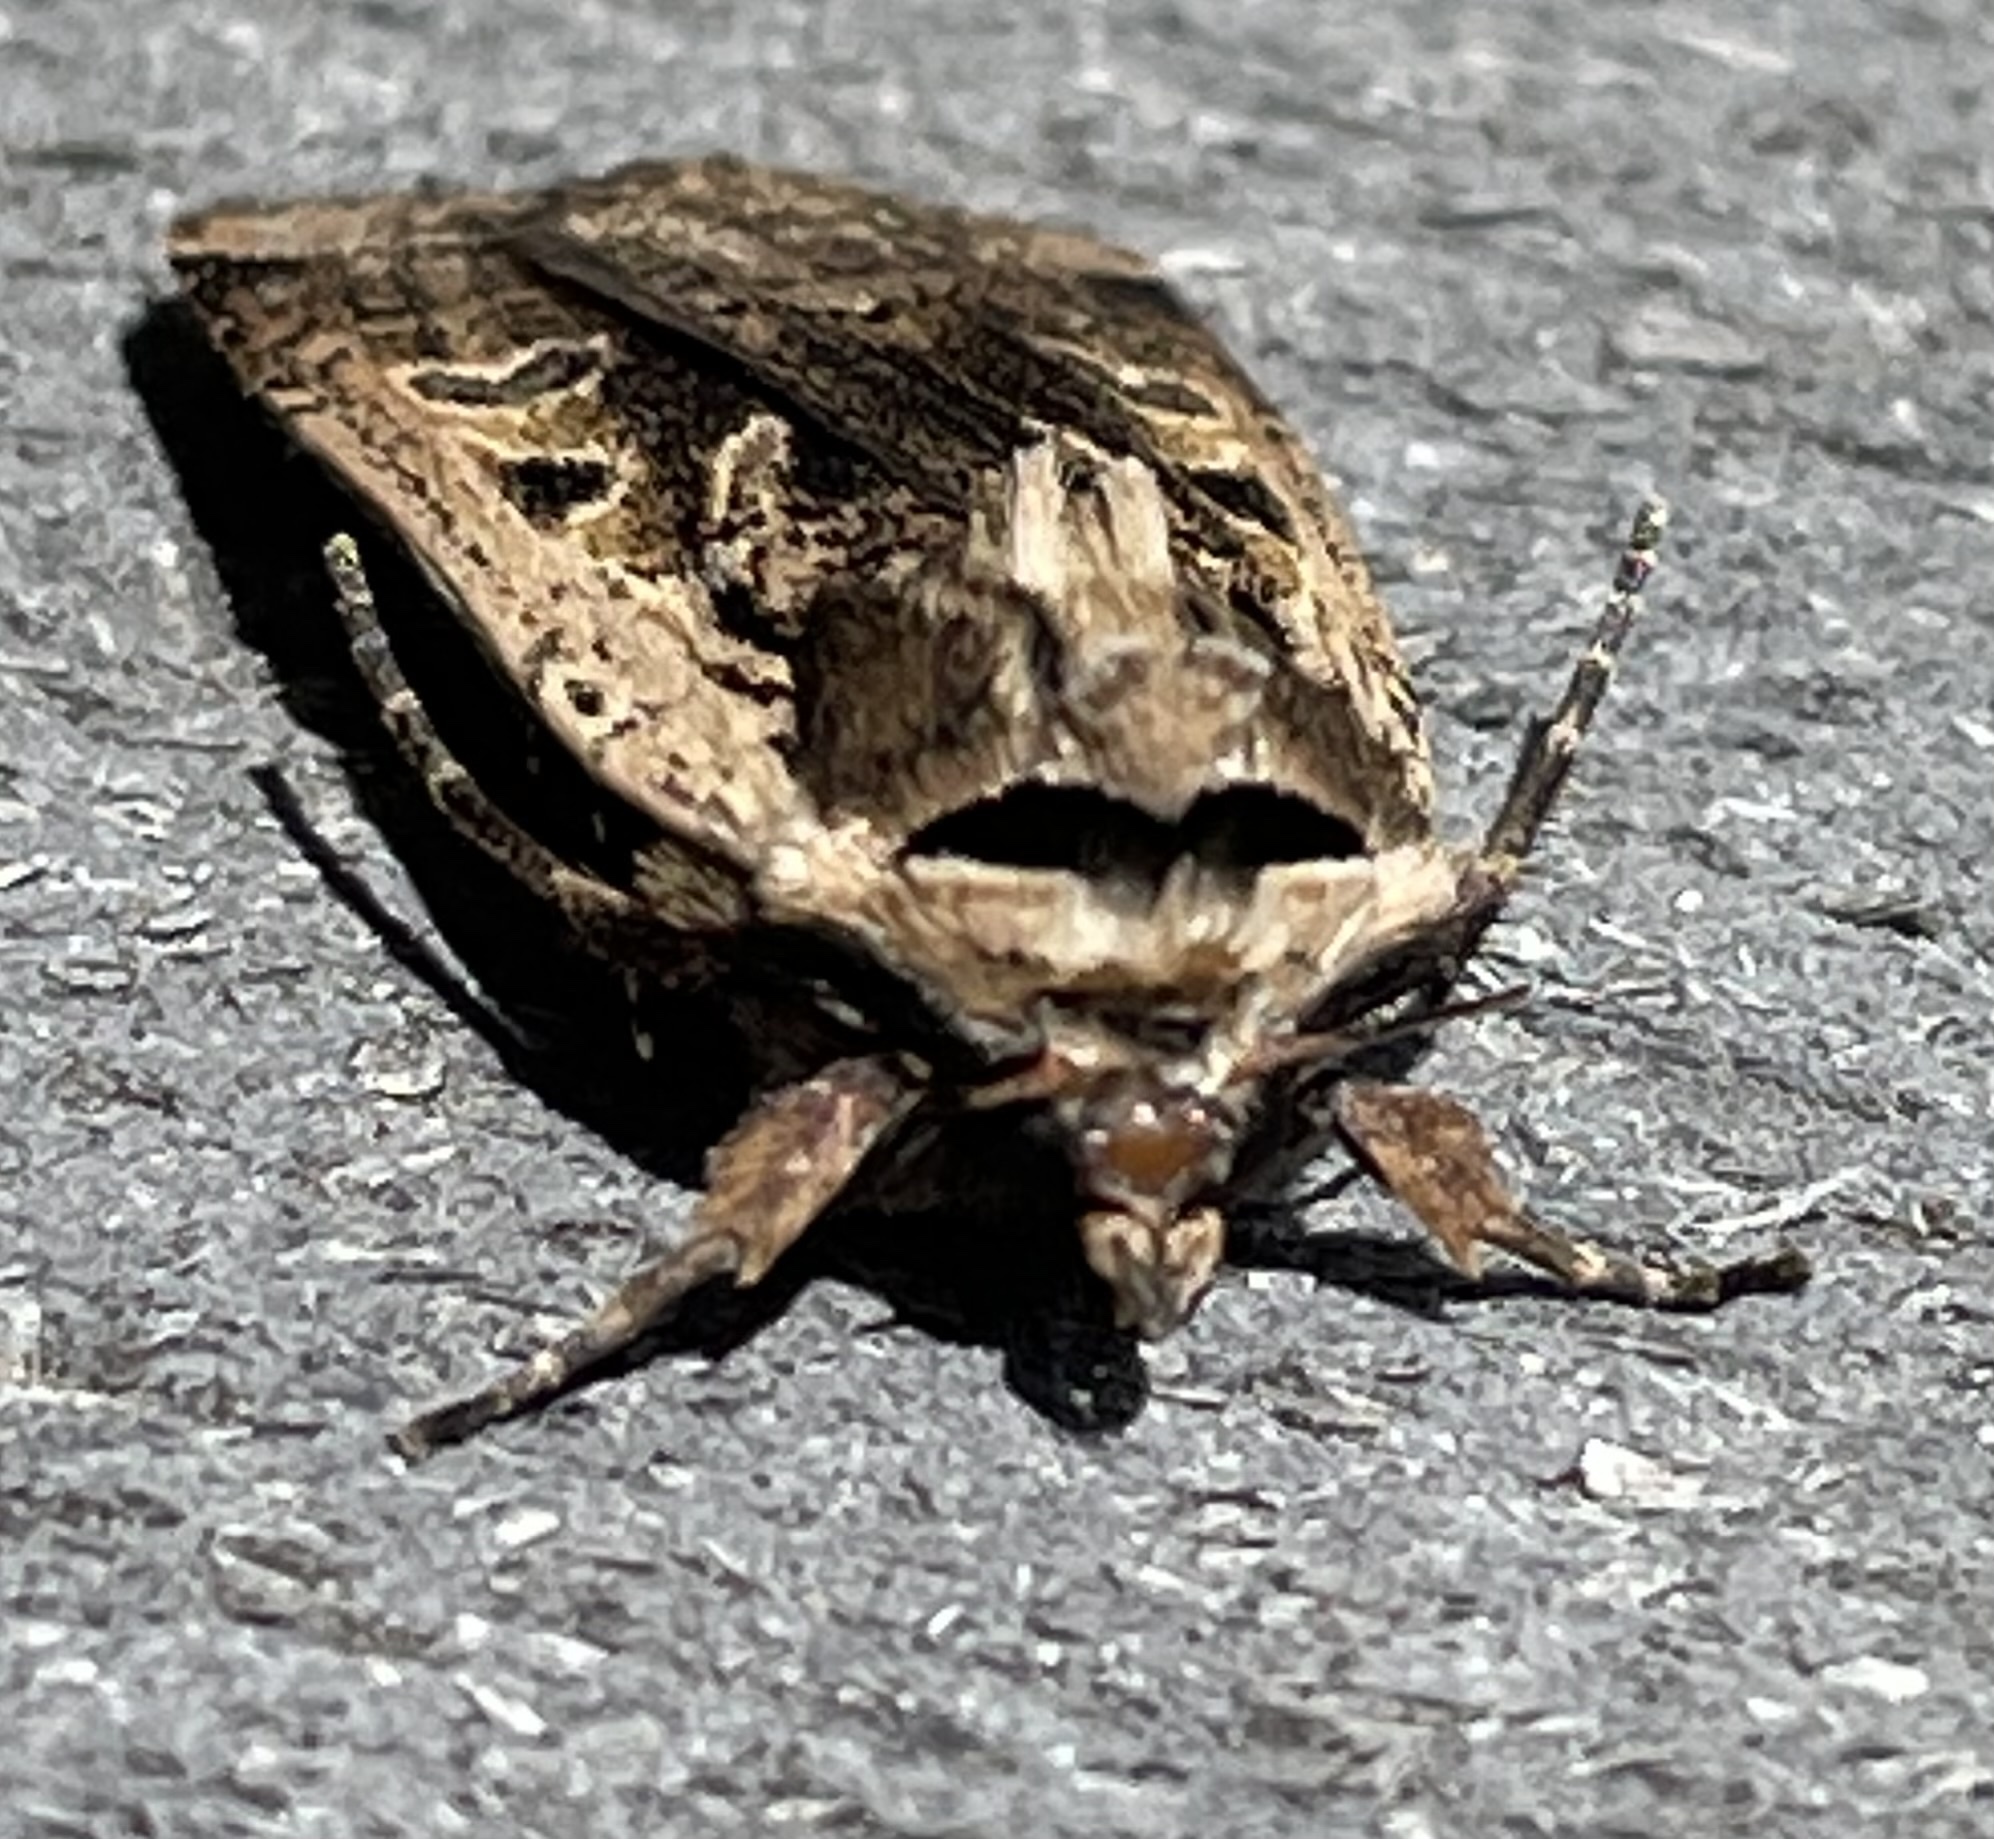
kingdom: Animalia
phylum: Arthropoda
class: Insecta
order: Lepidoptera
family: Noctuidae
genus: Parabagrotis
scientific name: Parabagrotis sulinaris
